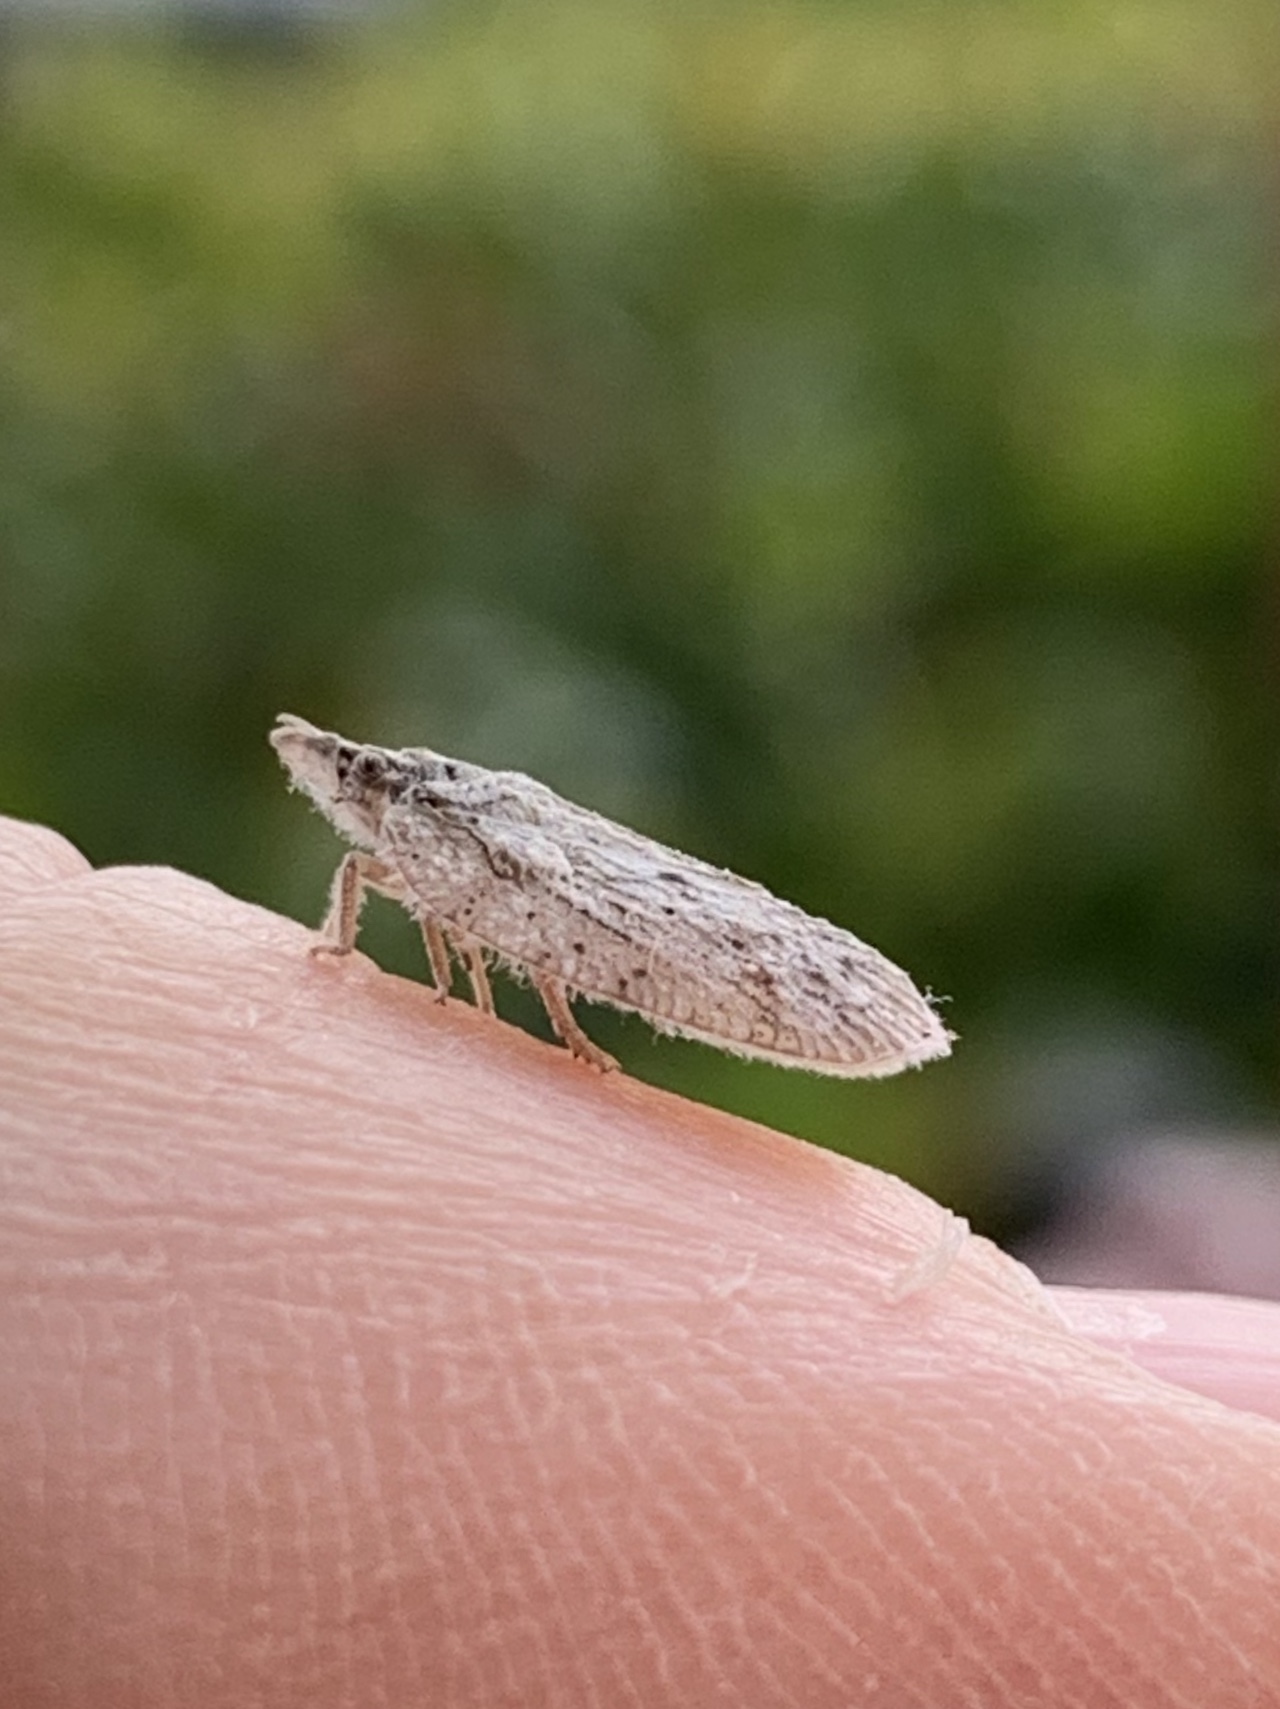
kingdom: Animalia
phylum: Arthropoda
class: Insecta
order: Hemiptera
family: Flatidae
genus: Flatoidinus
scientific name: Flatoidinus punctatus
